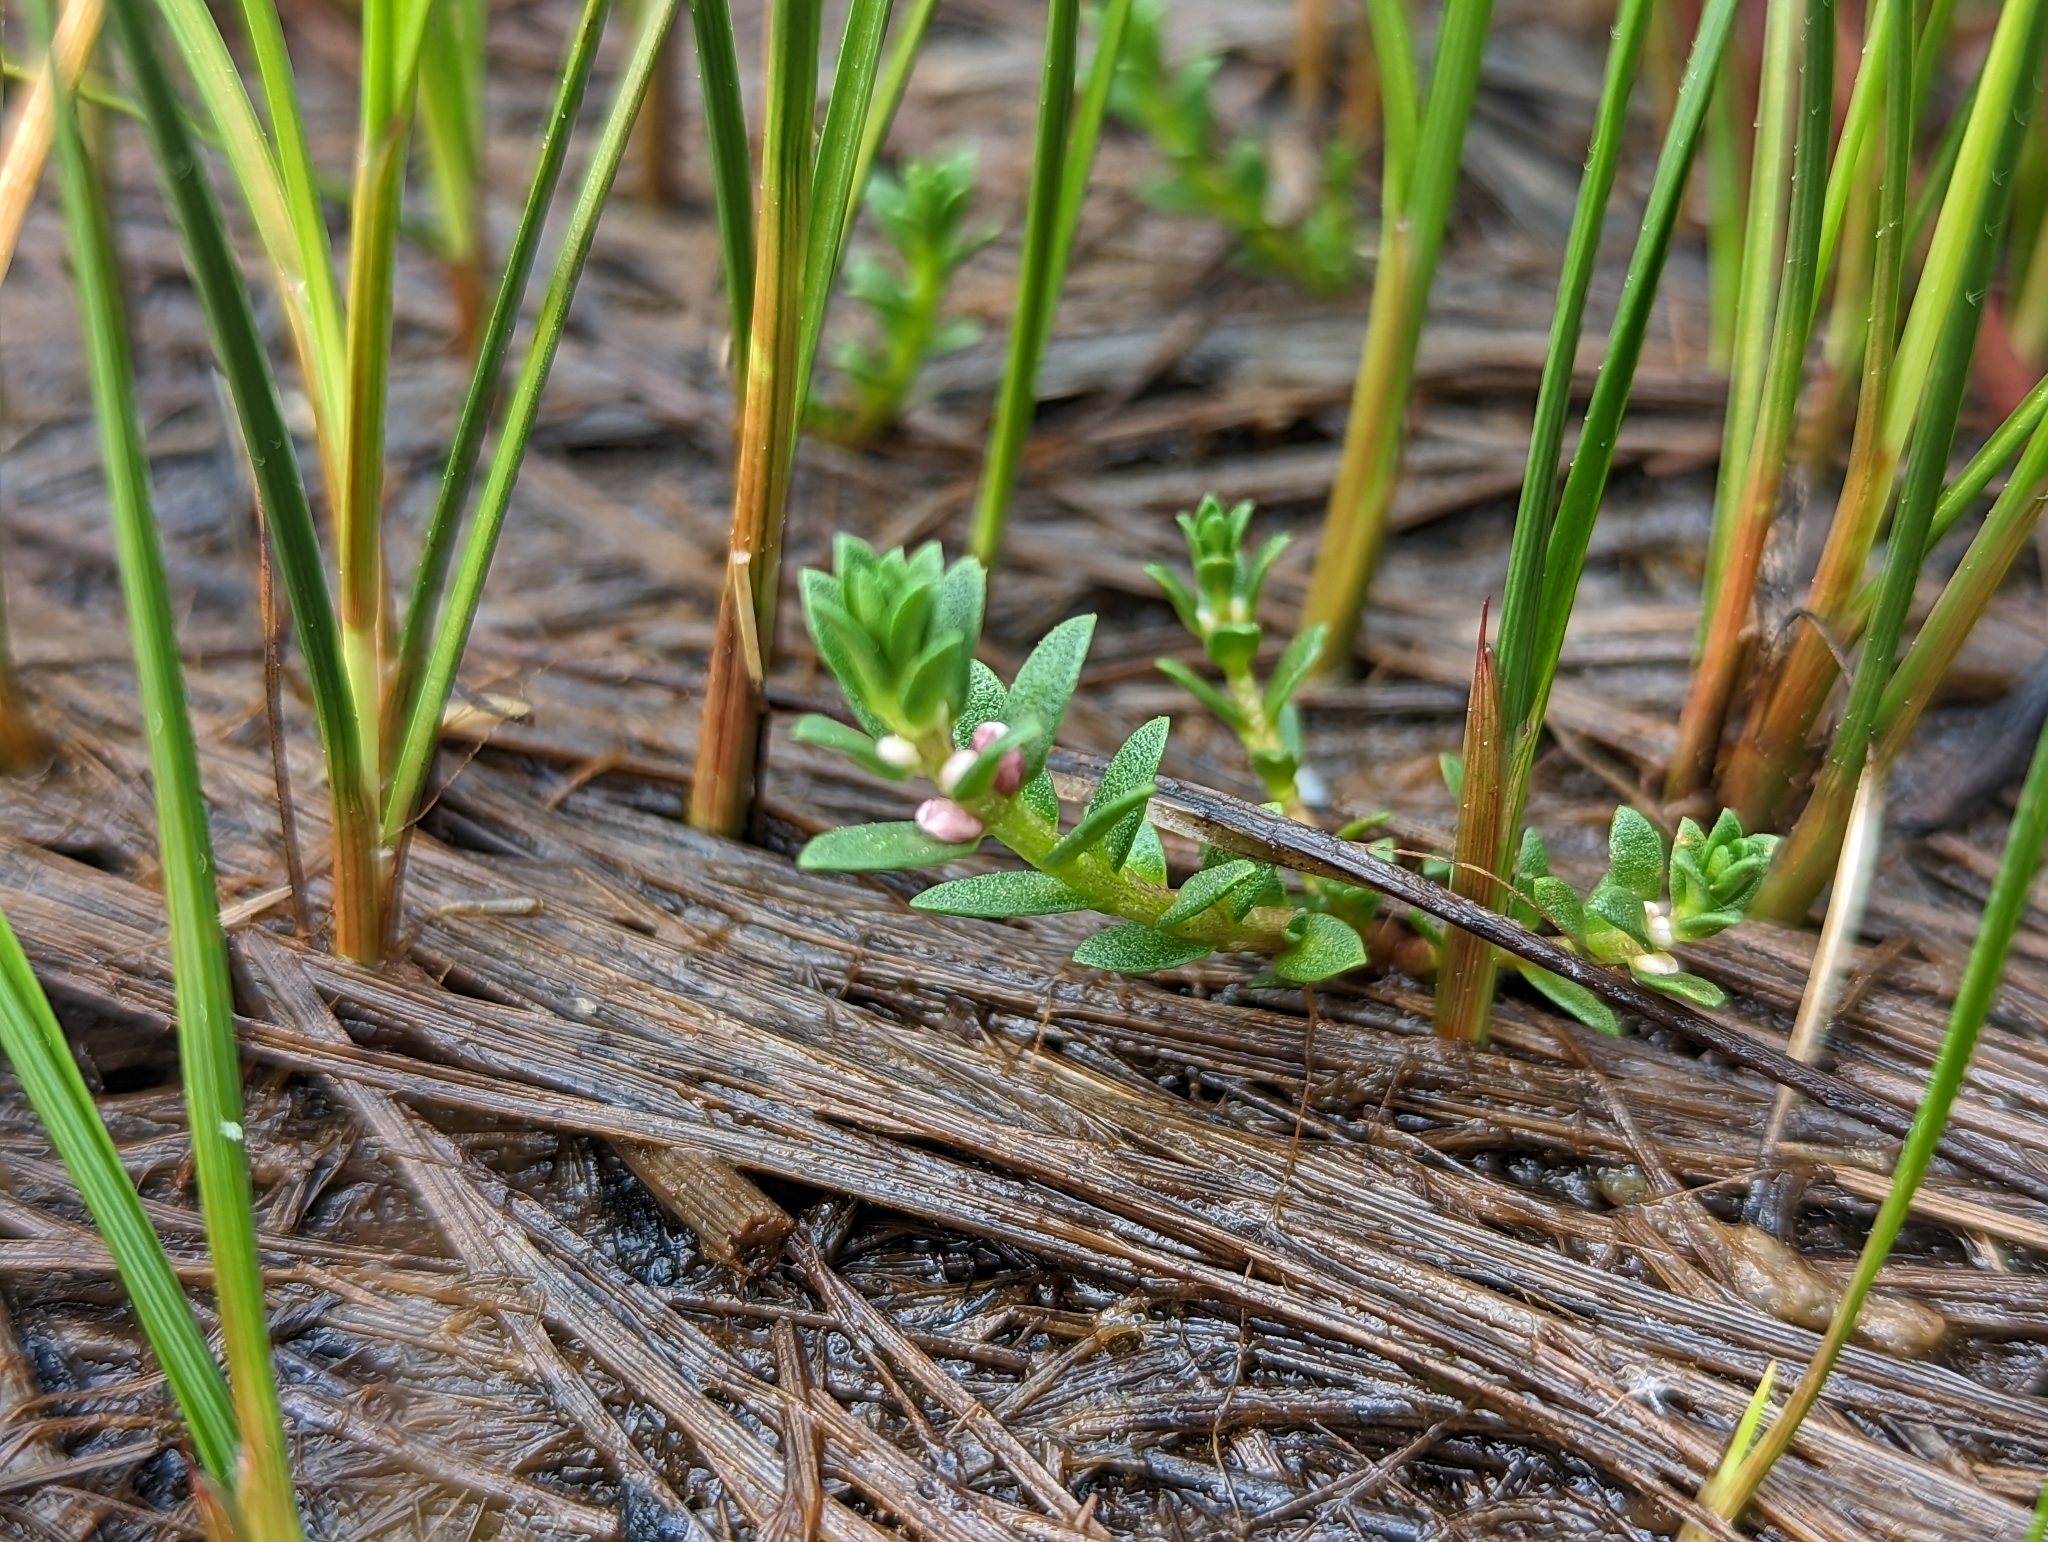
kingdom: Plantae
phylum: Tracheophyta
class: Magnoliopsida
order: Ericales
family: Primulaceae
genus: Lysimachia
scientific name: Lysimachia maritima
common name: Sea milkwort
